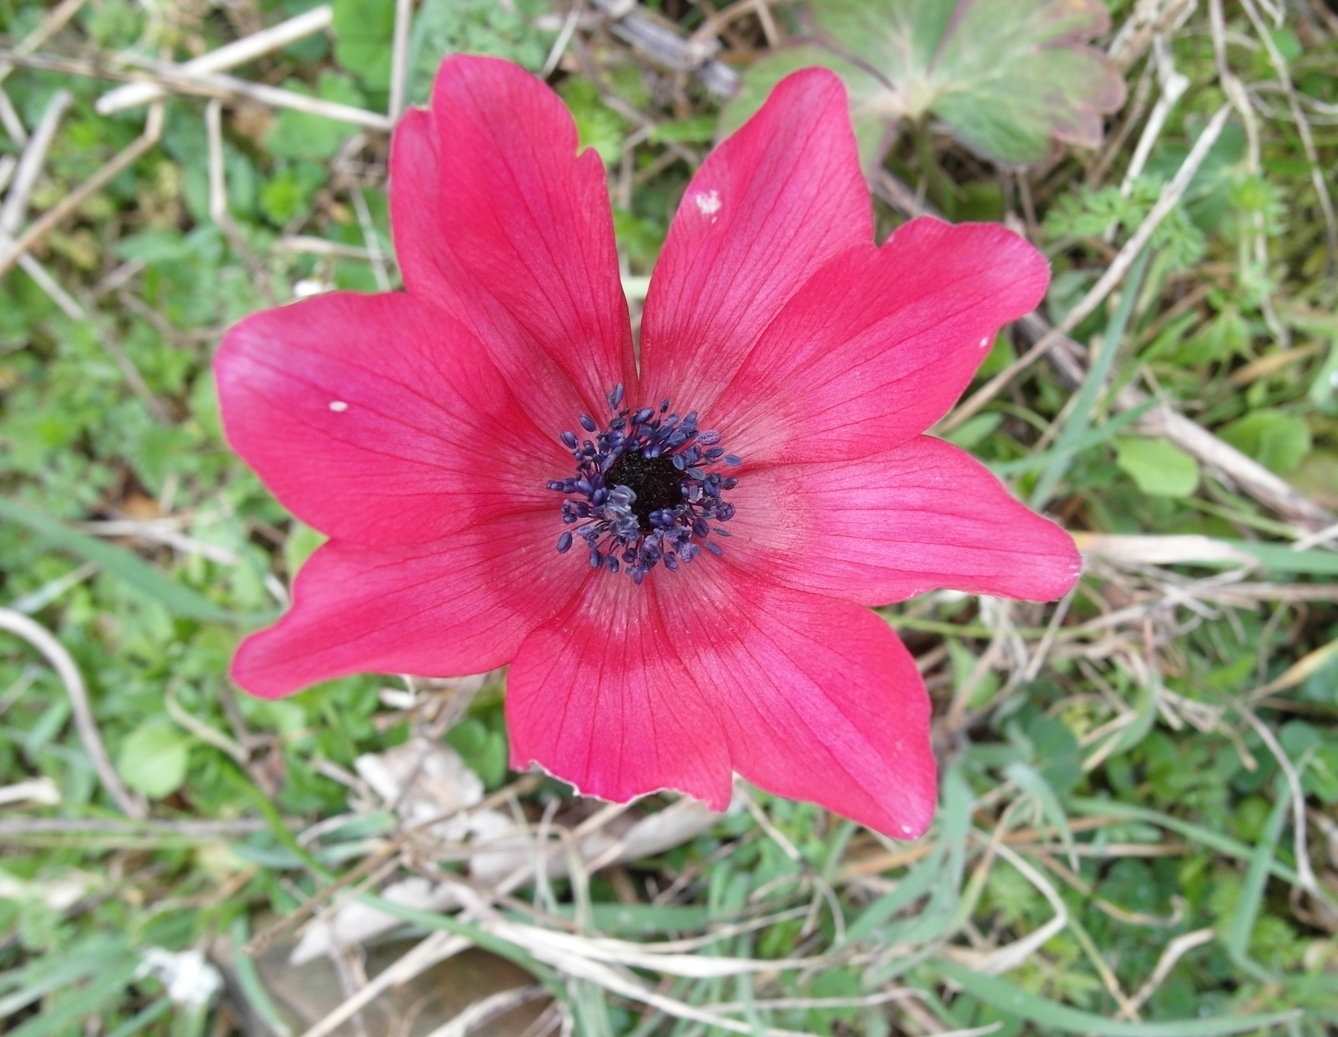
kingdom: Plantae
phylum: Tracheophyta
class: Magnoliopsida
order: Ranunculales
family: Ranunculaceae
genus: Anemone
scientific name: Anemone pavonina
